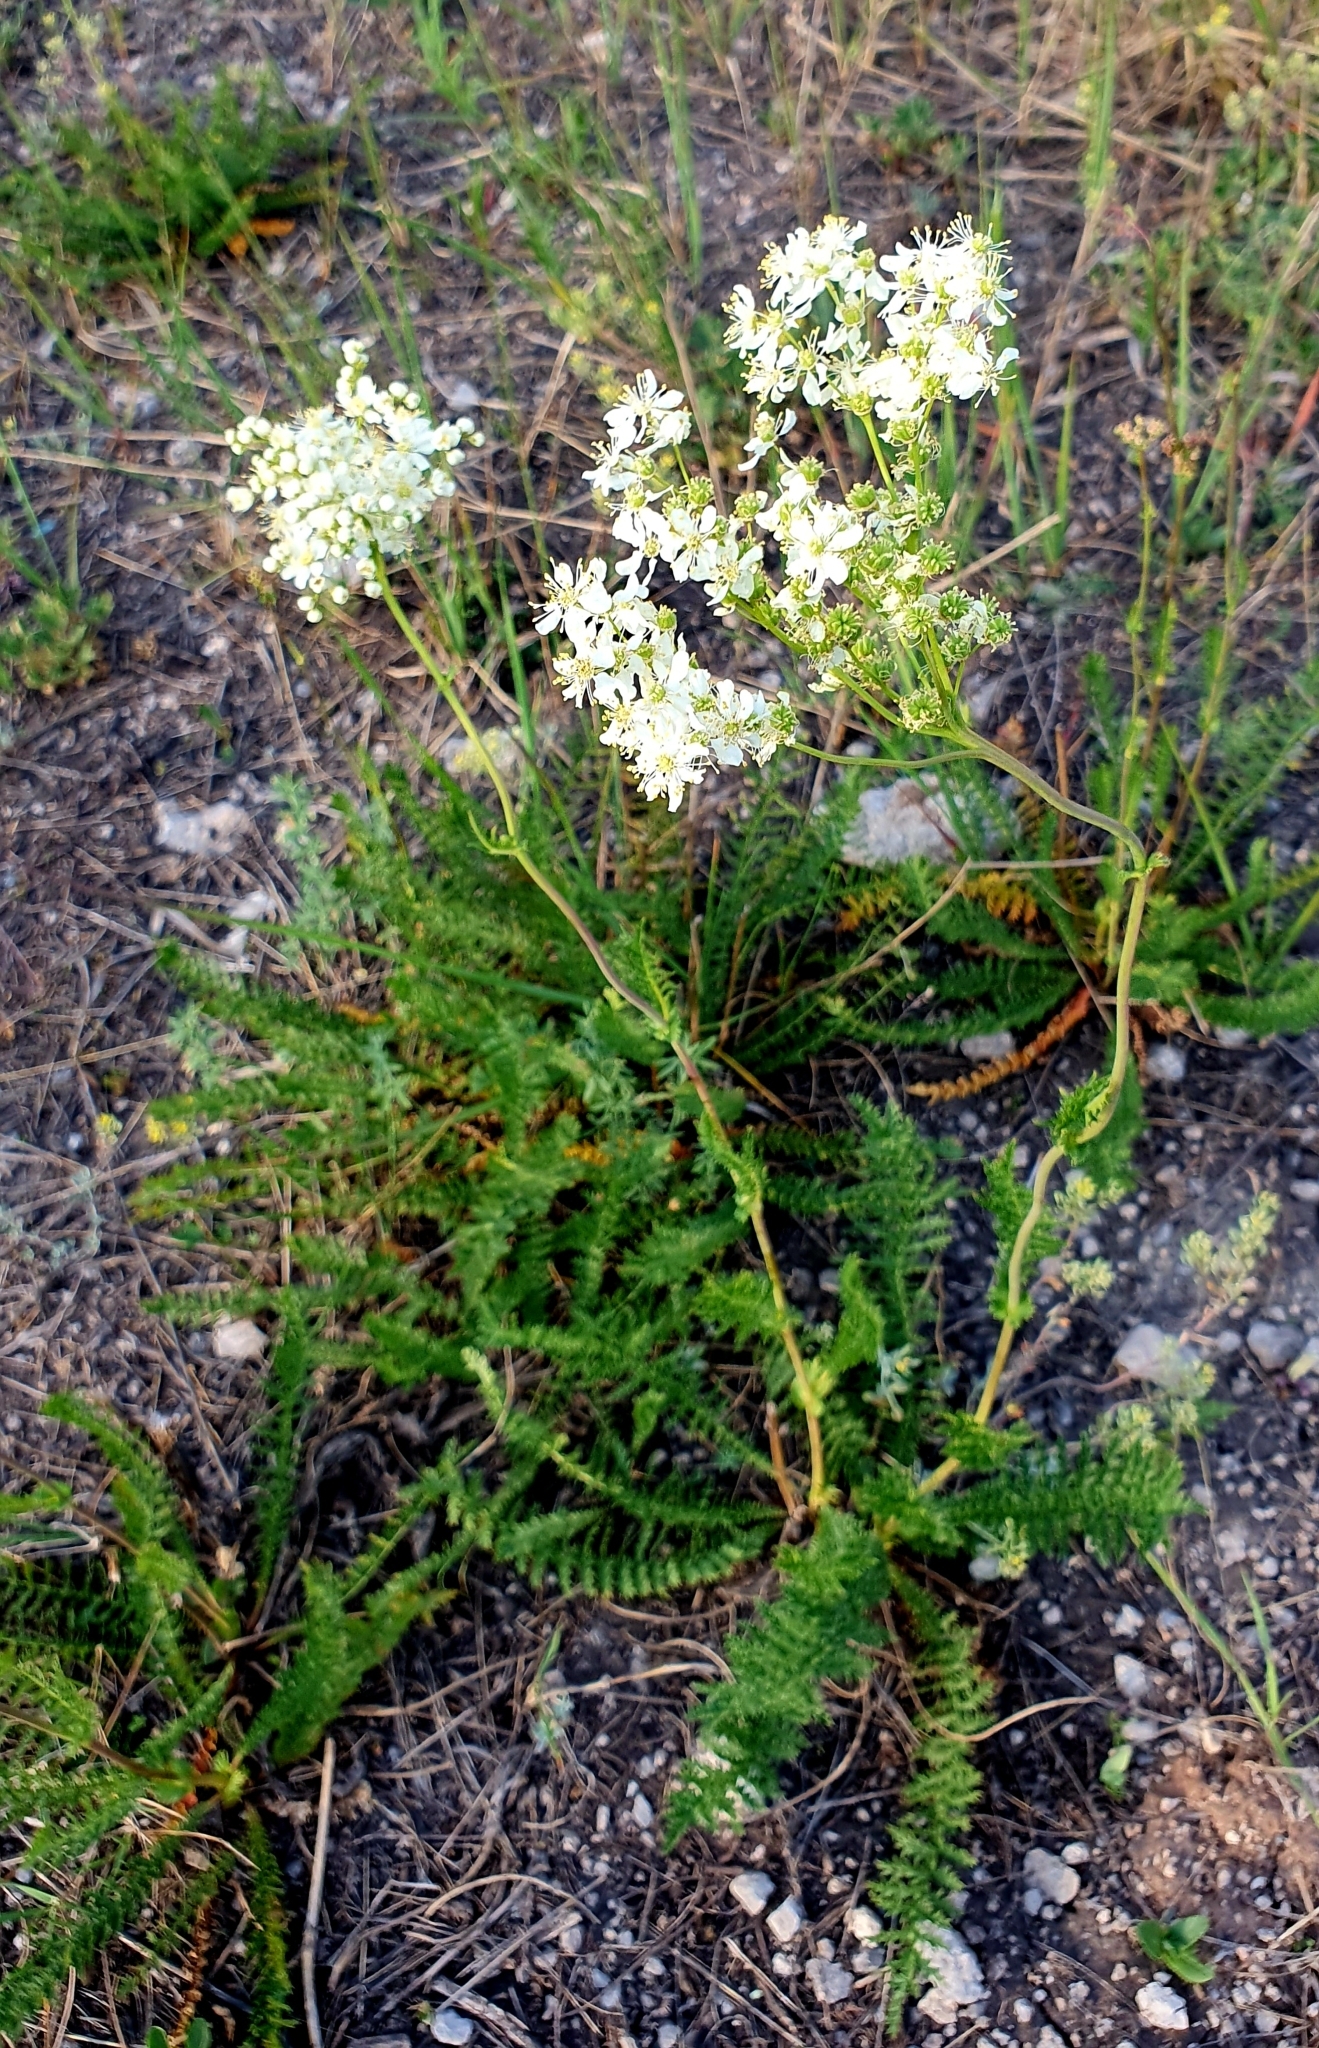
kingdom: Plantae
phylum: Tracheophyta
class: Magnoliopsida
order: Rosales
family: Rosaceae
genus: Filipendula
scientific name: Filipendula vulgaris
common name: Dropwort
